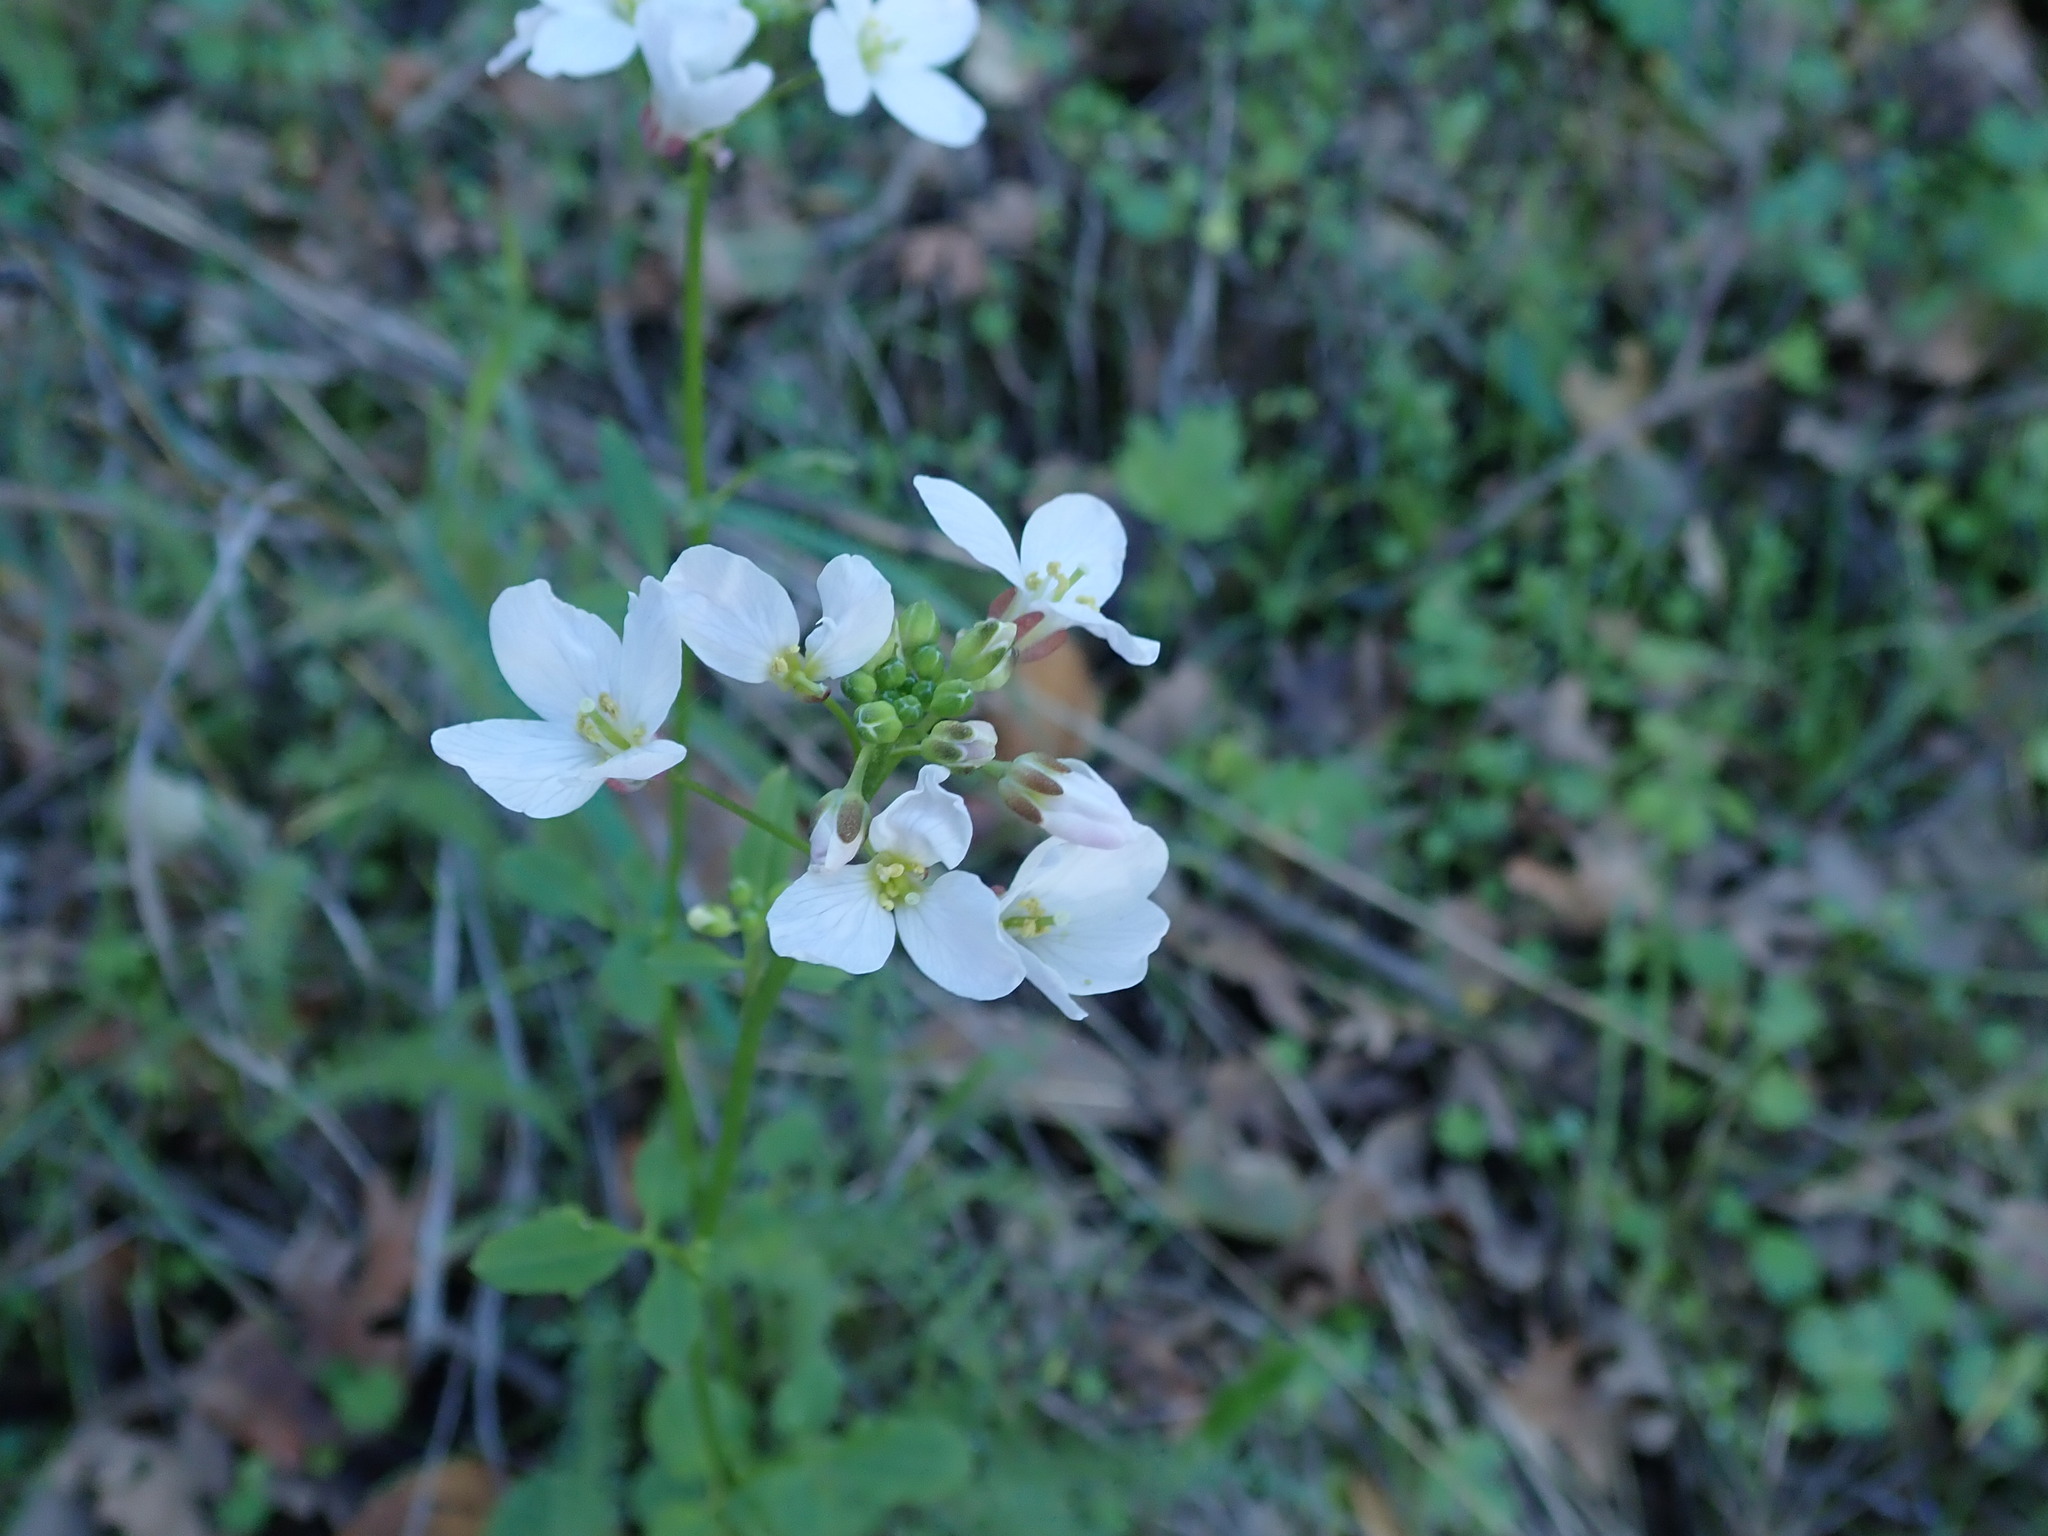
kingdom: Plantae
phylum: Tracheophyta
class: Magnoliopsida
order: Brassicales
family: Brassicaceae
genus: Cardamine
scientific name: Cardamine californica
